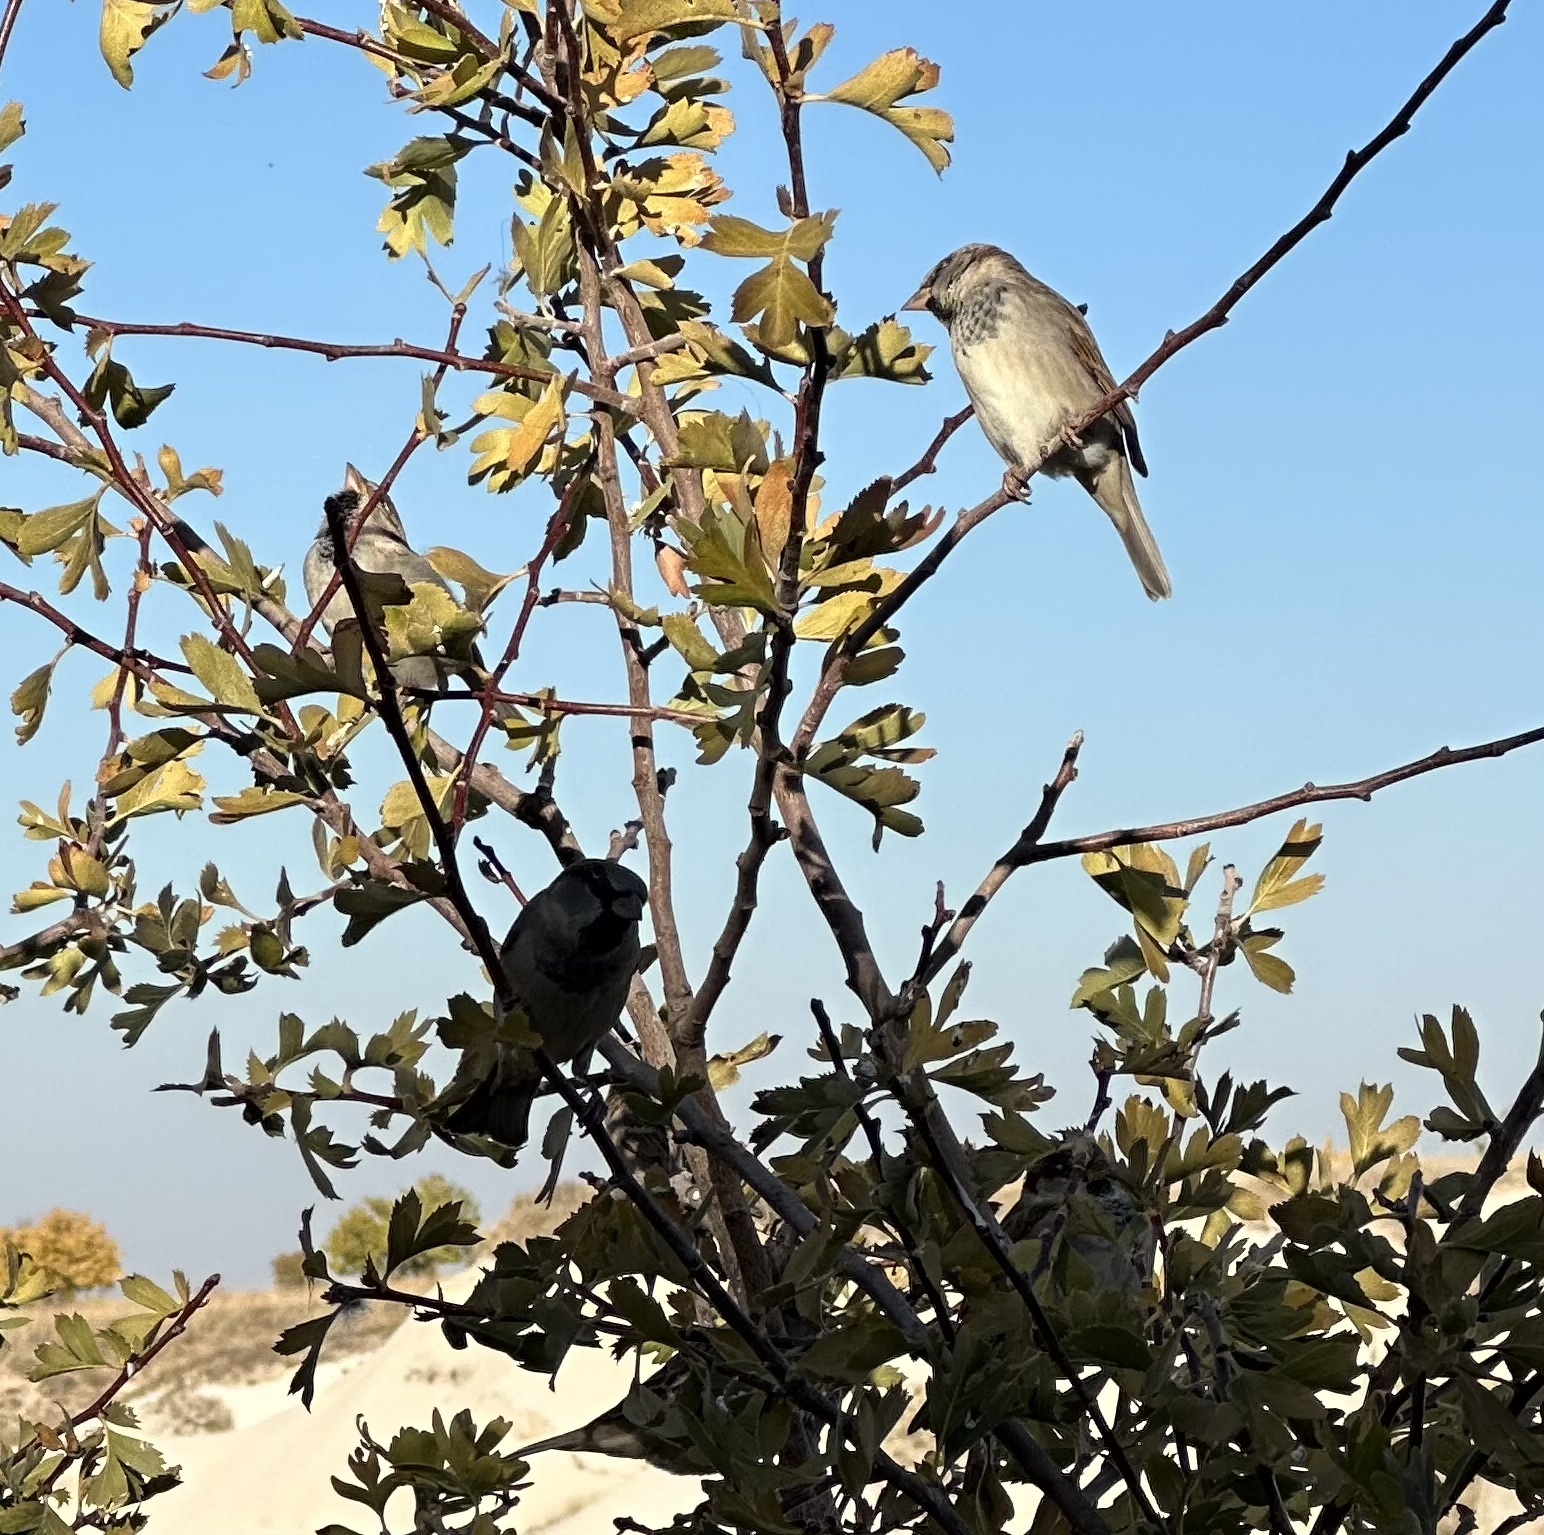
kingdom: Animalia
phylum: Chordata
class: Aves
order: Passeriformes
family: Passeridae
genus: Passer
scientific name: Passer domesticus
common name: House sparrow
